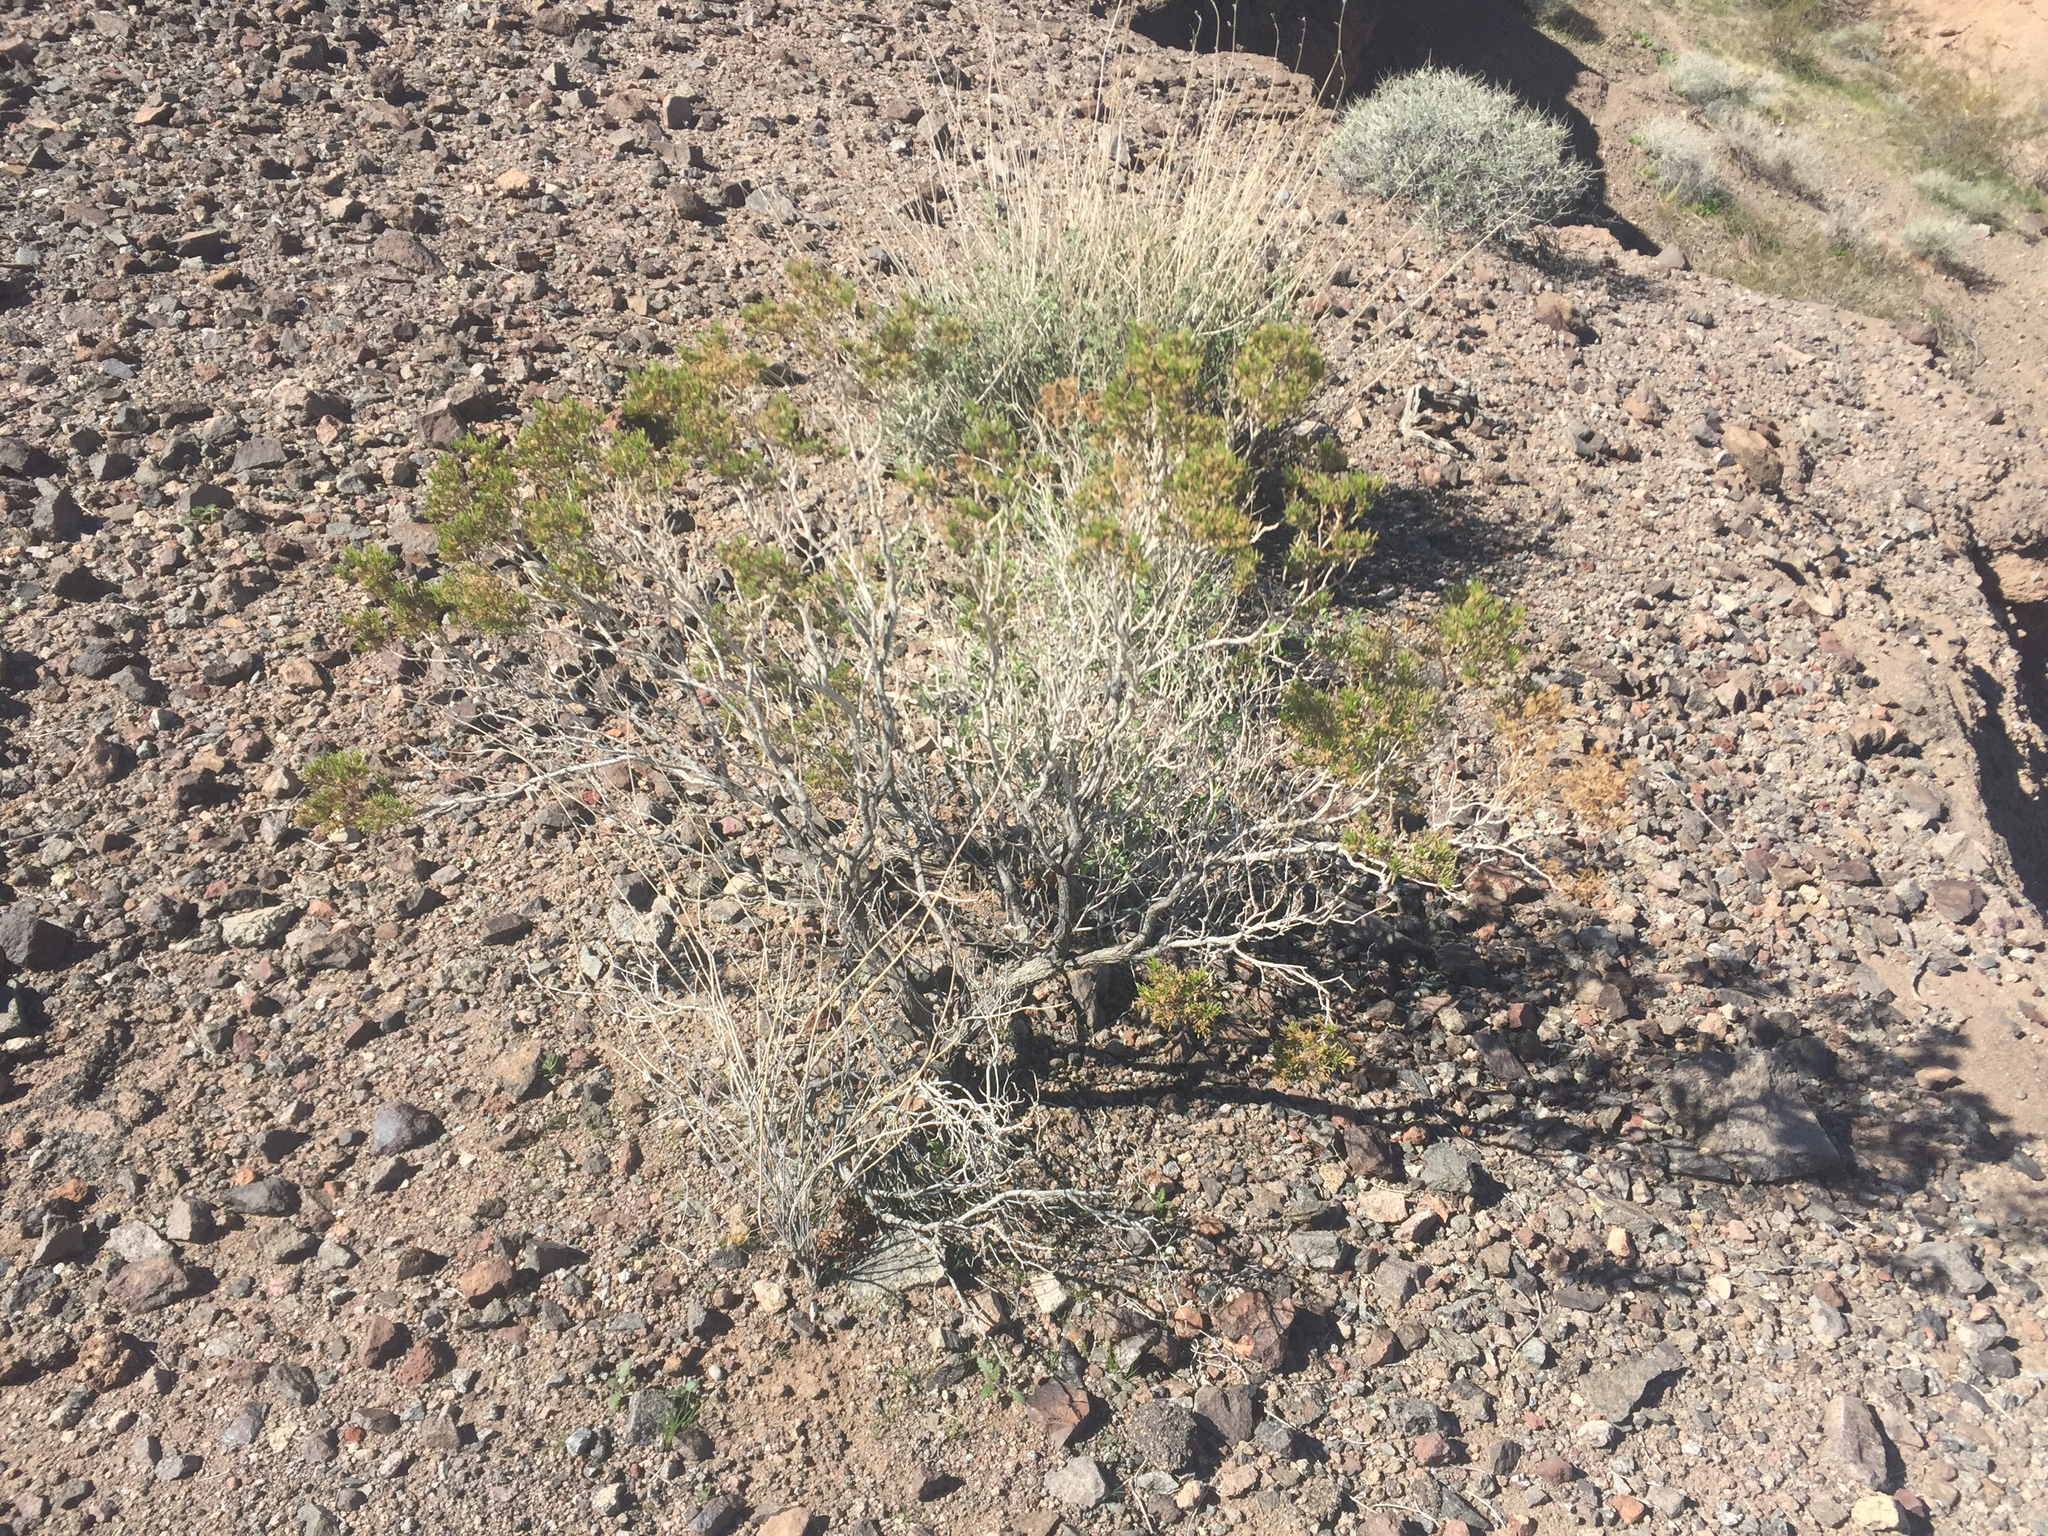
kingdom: Plantae
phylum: Tracheophyta
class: Magnoliopsida
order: Zygophyllales
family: Zygophyllaceae
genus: Larrea
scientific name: Larrea tridentata
